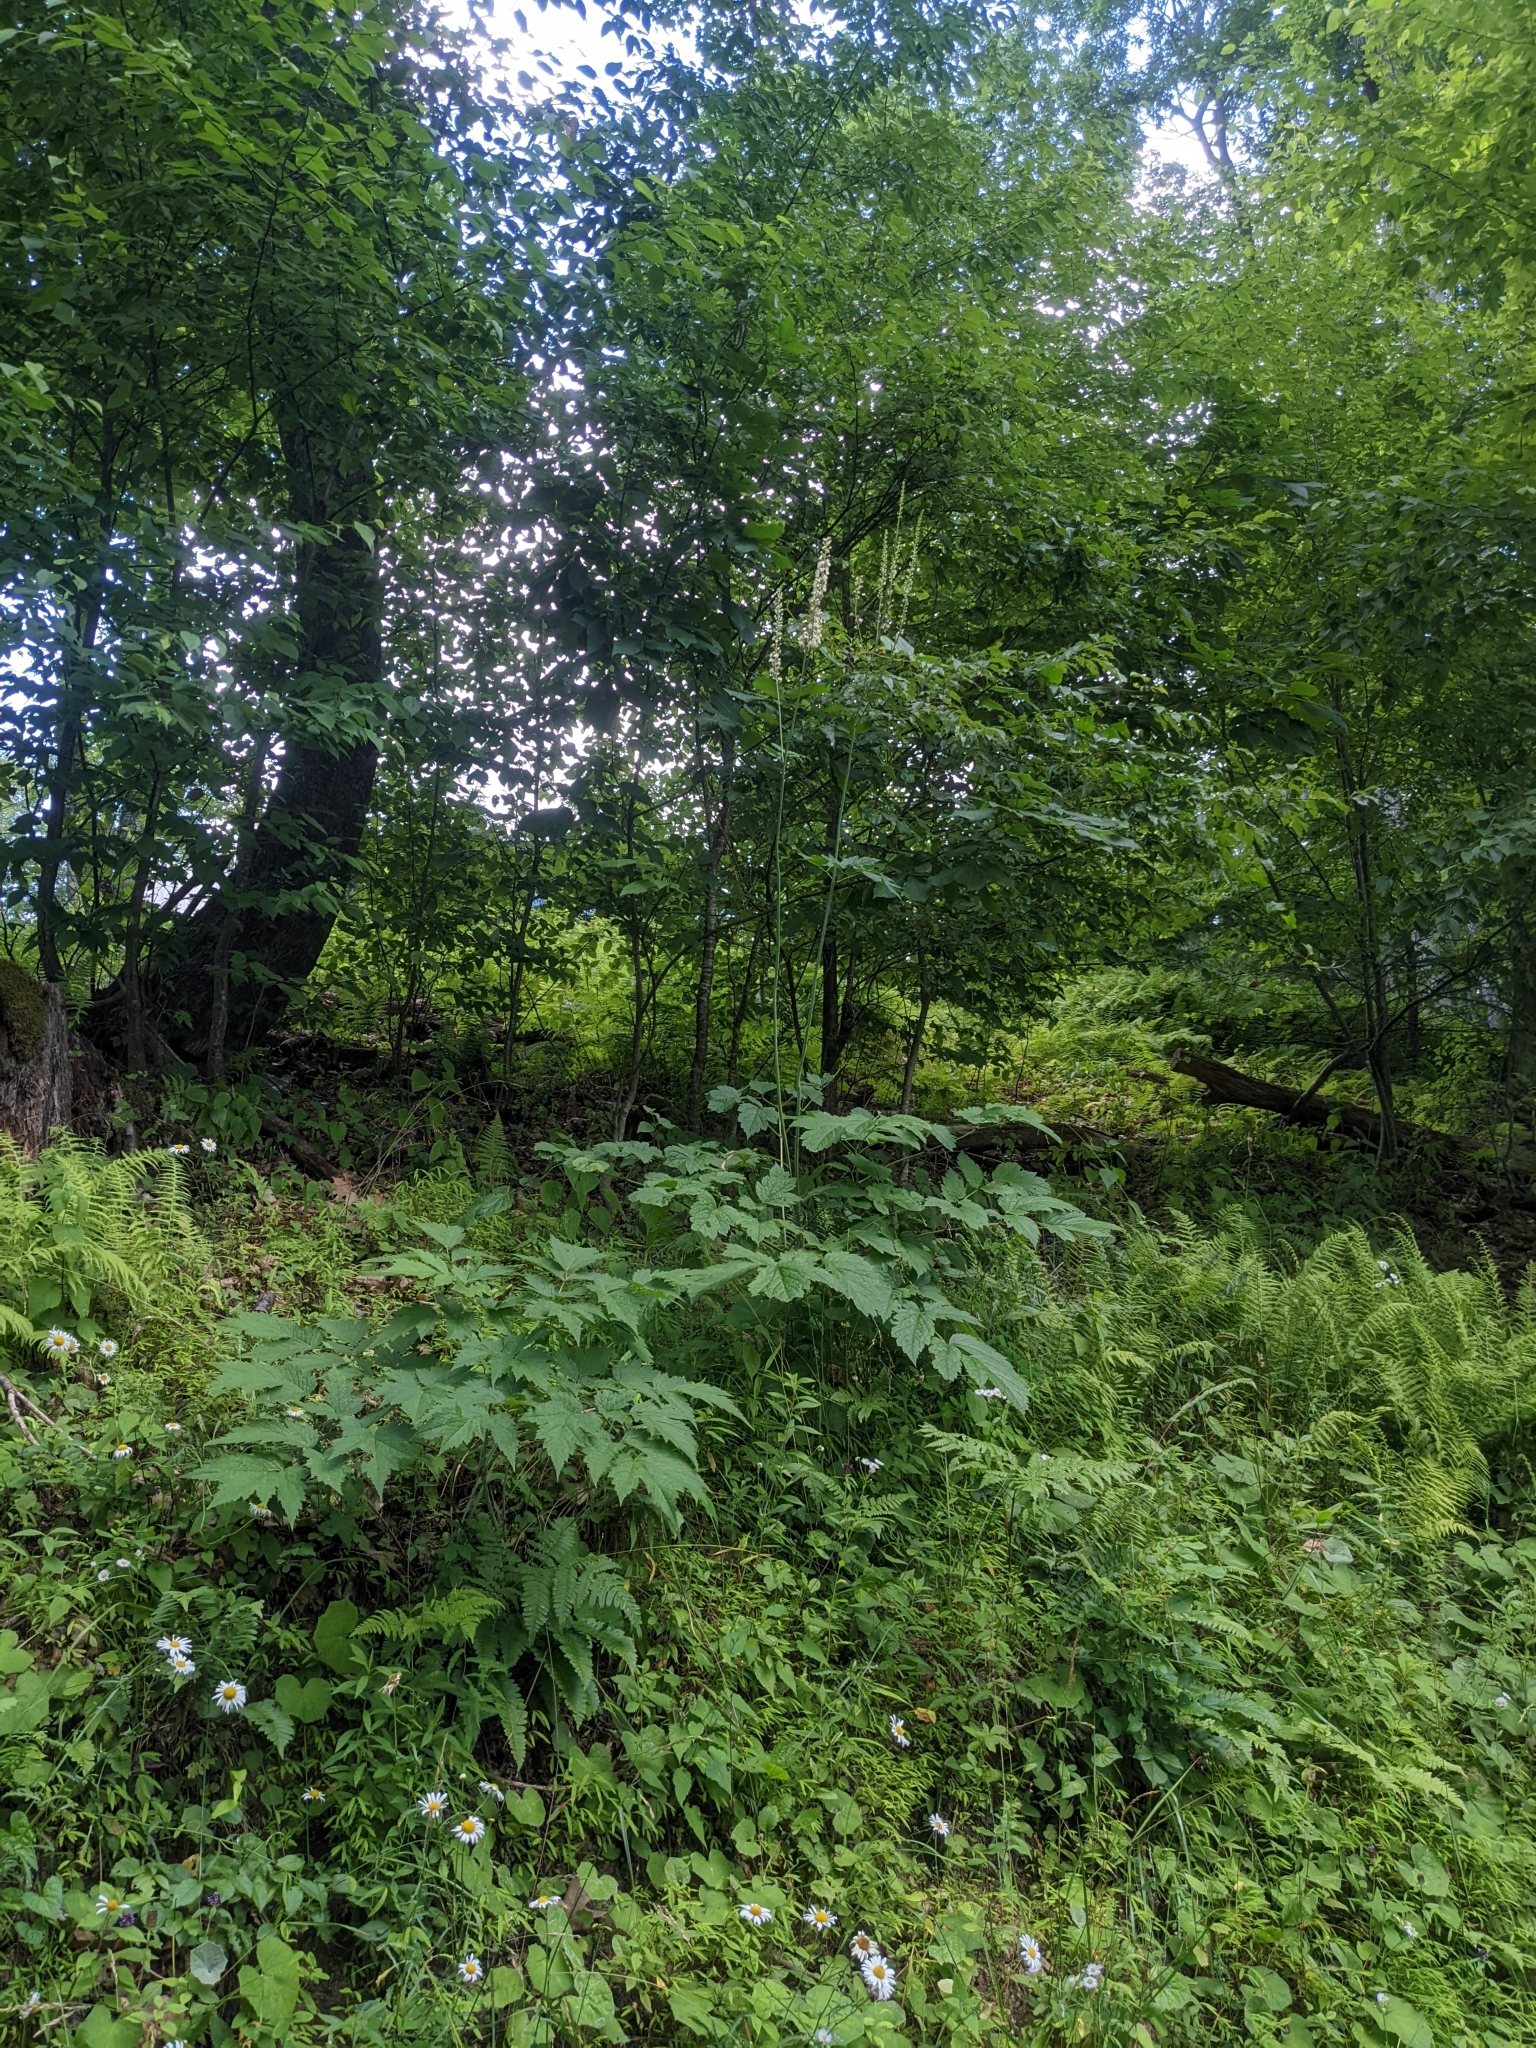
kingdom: Plantae
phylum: Tracheophyta
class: Magnoliopsida
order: Ranunculales
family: Ranunculaceae
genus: Actaea
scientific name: Actaea racemosa
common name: Black cohosh
